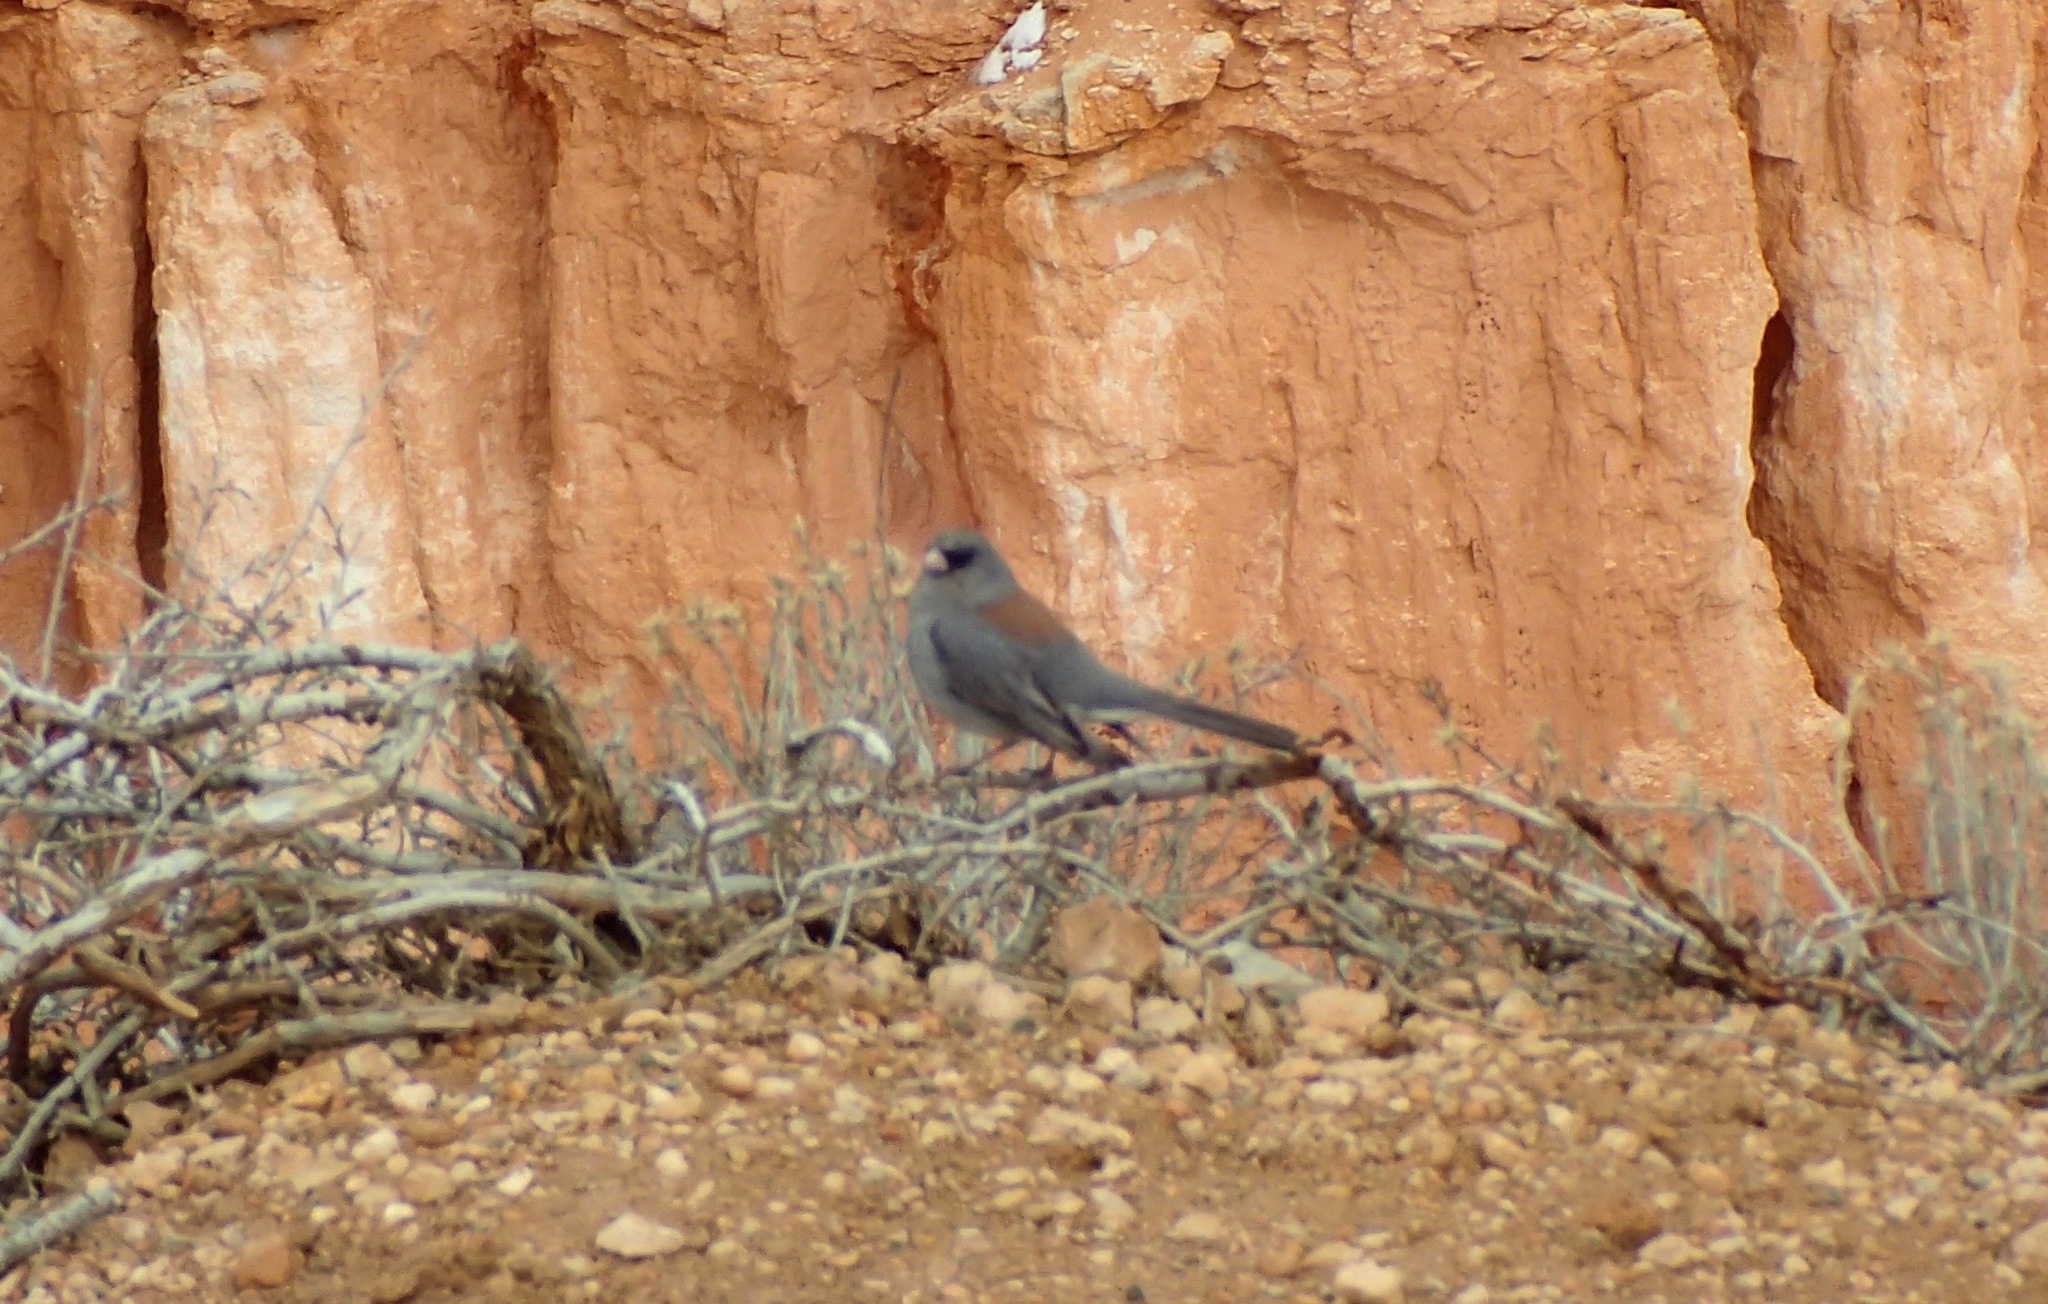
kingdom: Animalia
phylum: Chordata
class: Aves
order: Passeriformes
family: Passerellidae
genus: Junco
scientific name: Junco hyemalis
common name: Dark-eyed junco
